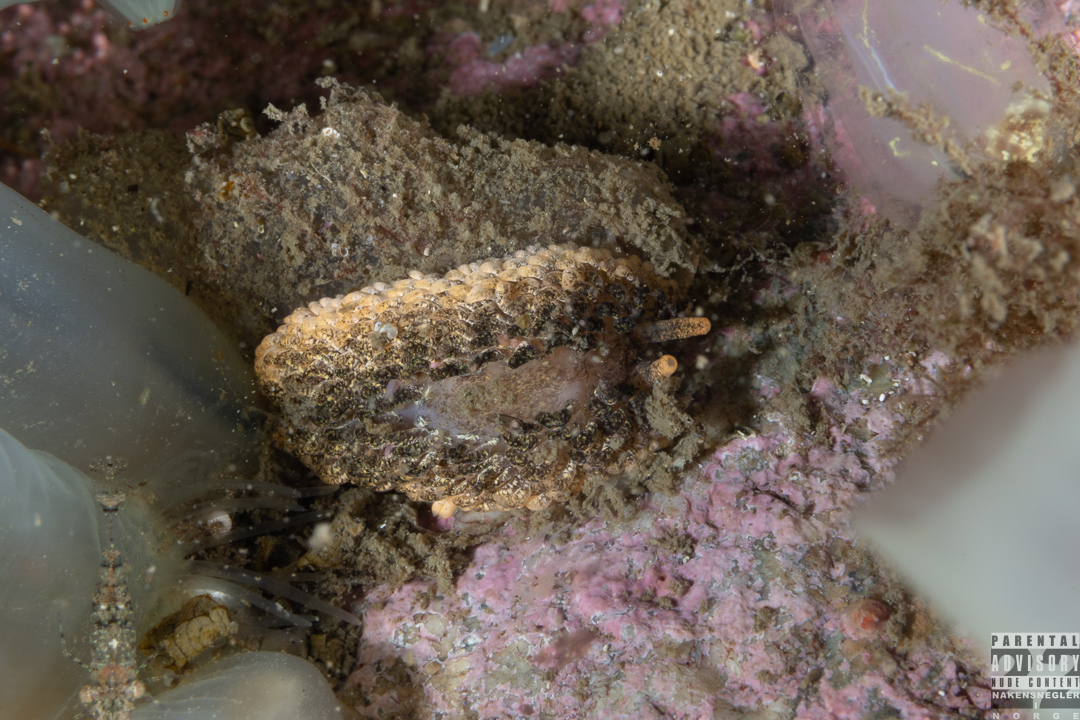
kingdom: Animalia
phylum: Mollusca
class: Gastropoda
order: Nudibranchia
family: Aeolidiidae
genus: Aeolidia
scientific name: Aeolidia papillosa
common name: Common grey sea slug
